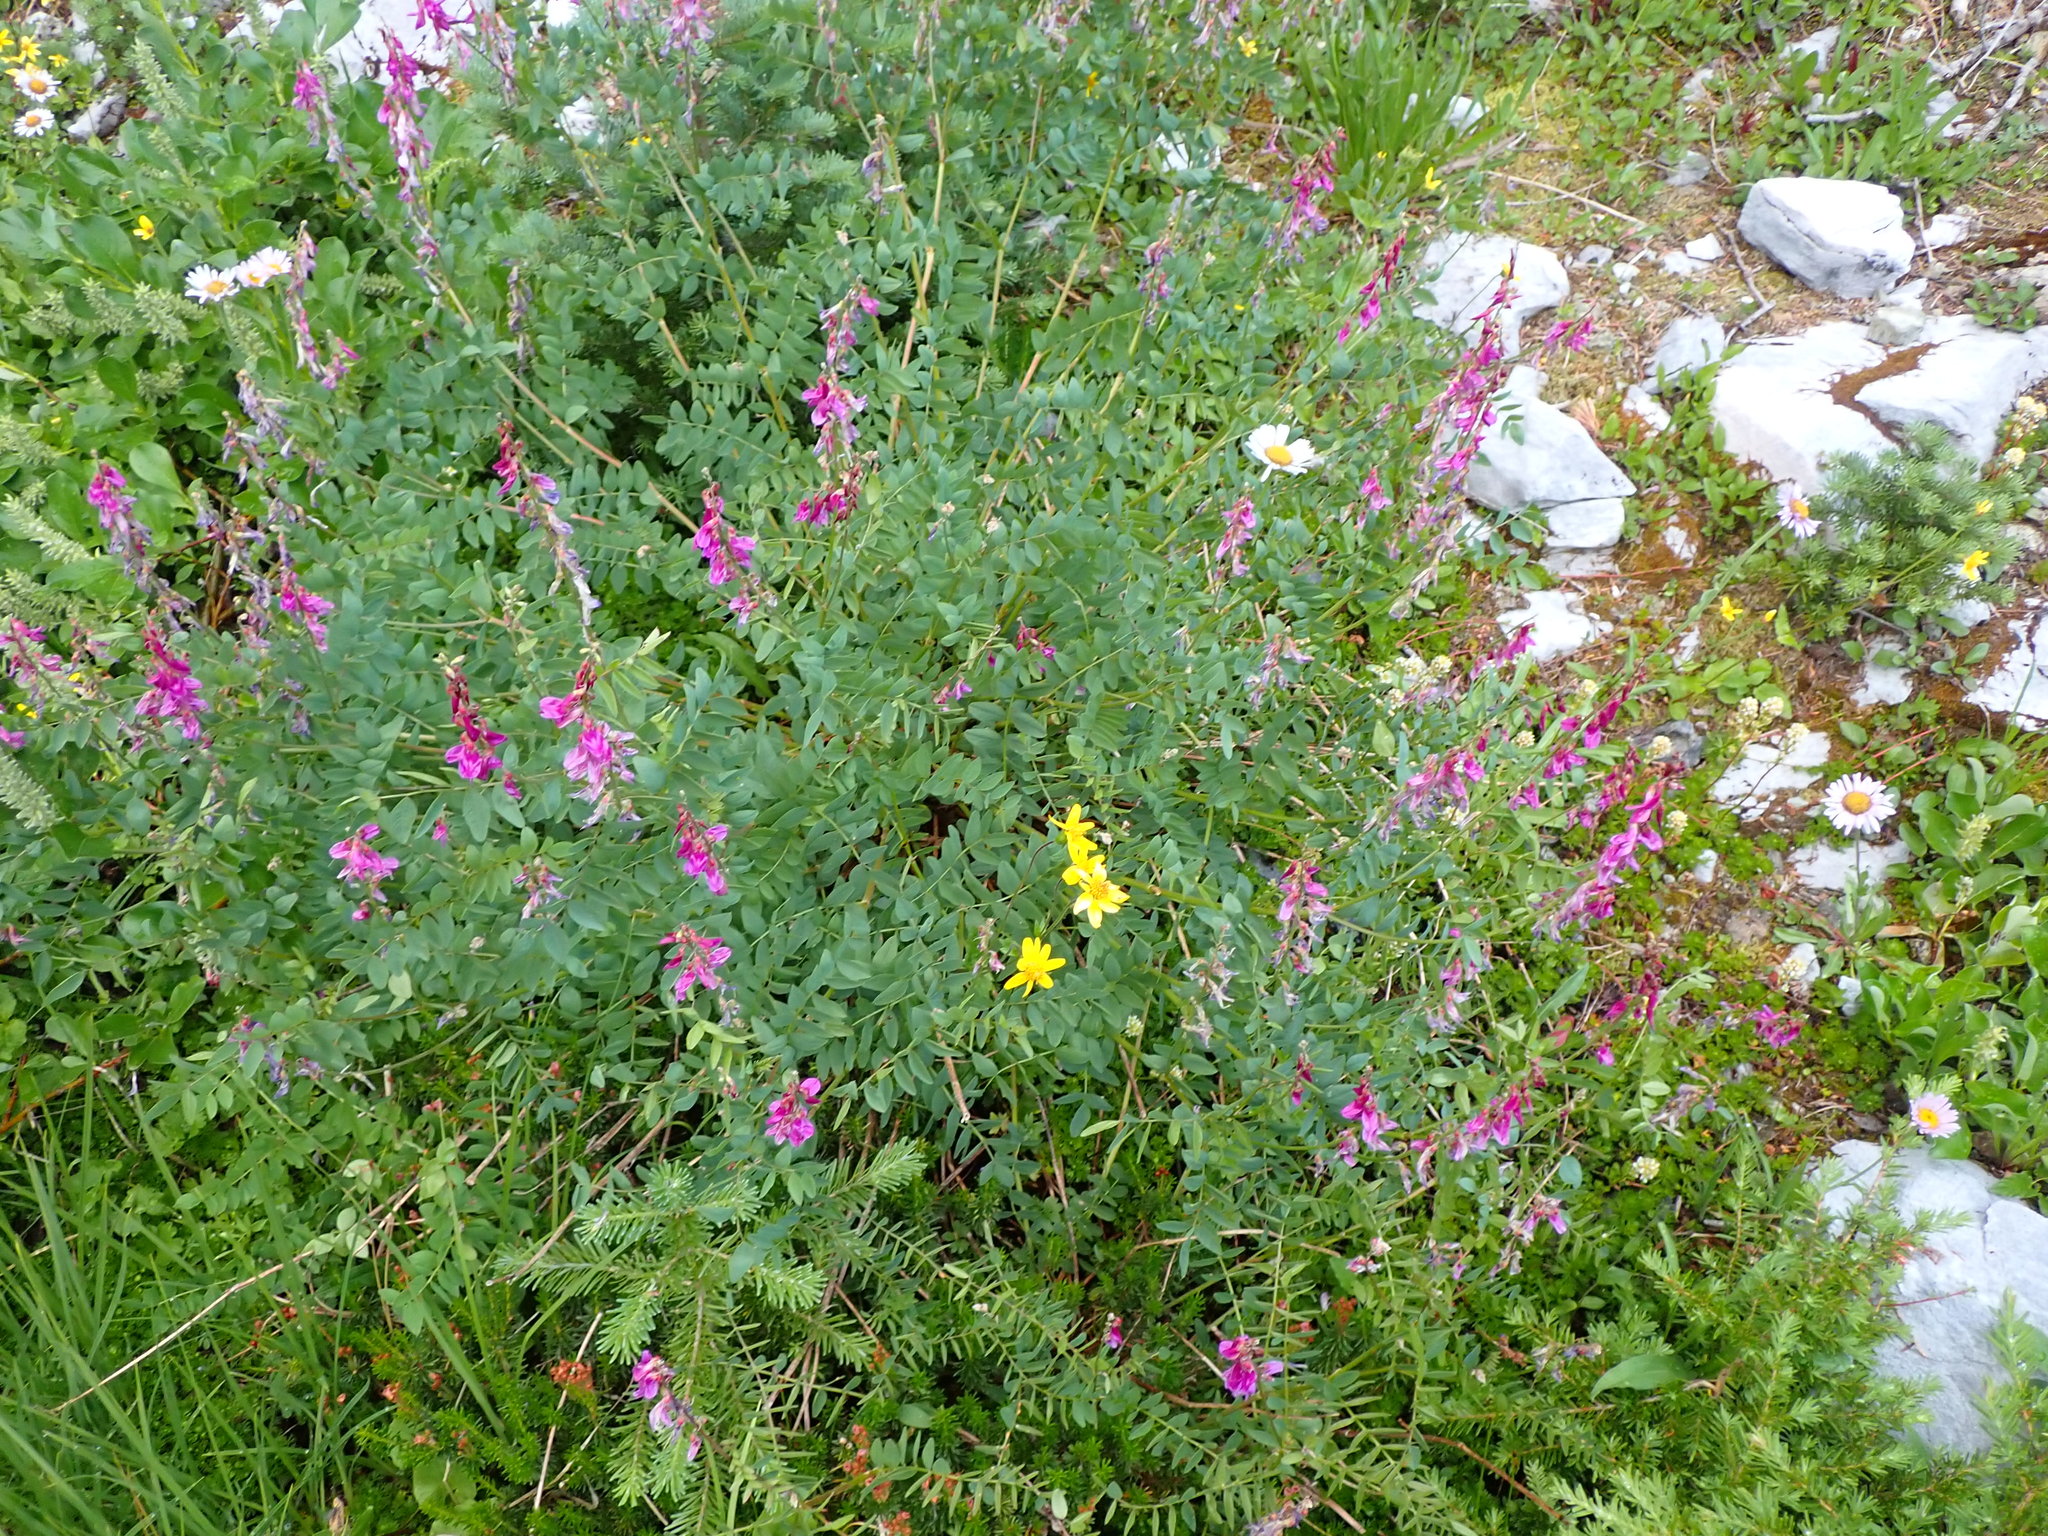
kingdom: Plantae
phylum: Tracheophyta
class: Magnoliopsida
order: Fabales
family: Fabaceae
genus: Hedysarum
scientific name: Hedysarum occidentale
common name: Western hedysarum
